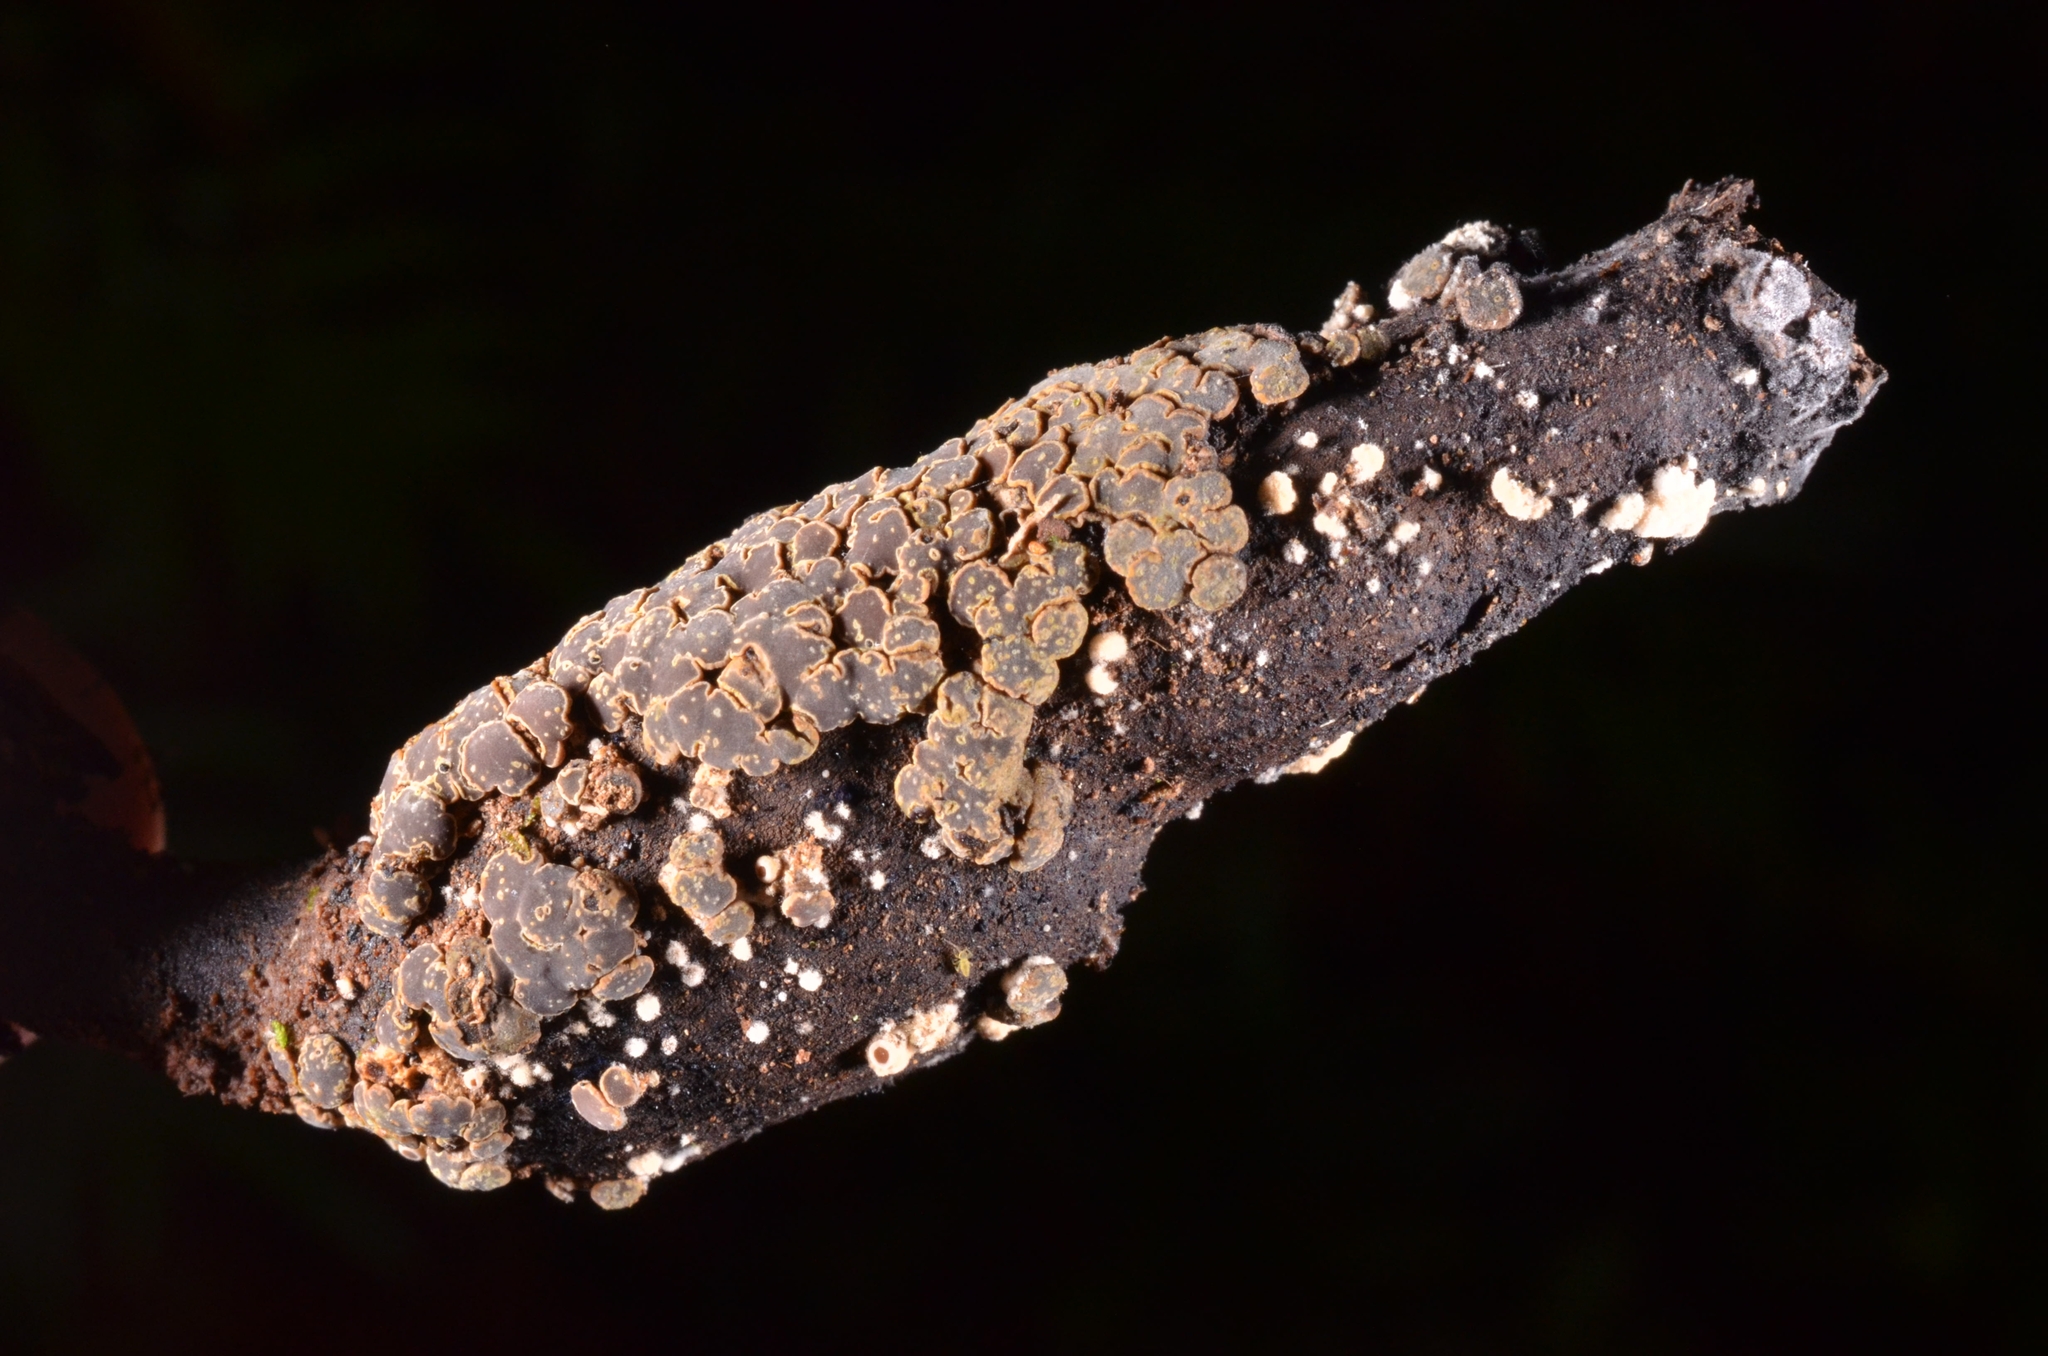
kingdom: Fungi
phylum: Ascomycota
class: Leotiomycetes
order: Helotiales
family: Cenangiaceae
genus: Encoelia
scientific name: Encoelia cubensis
